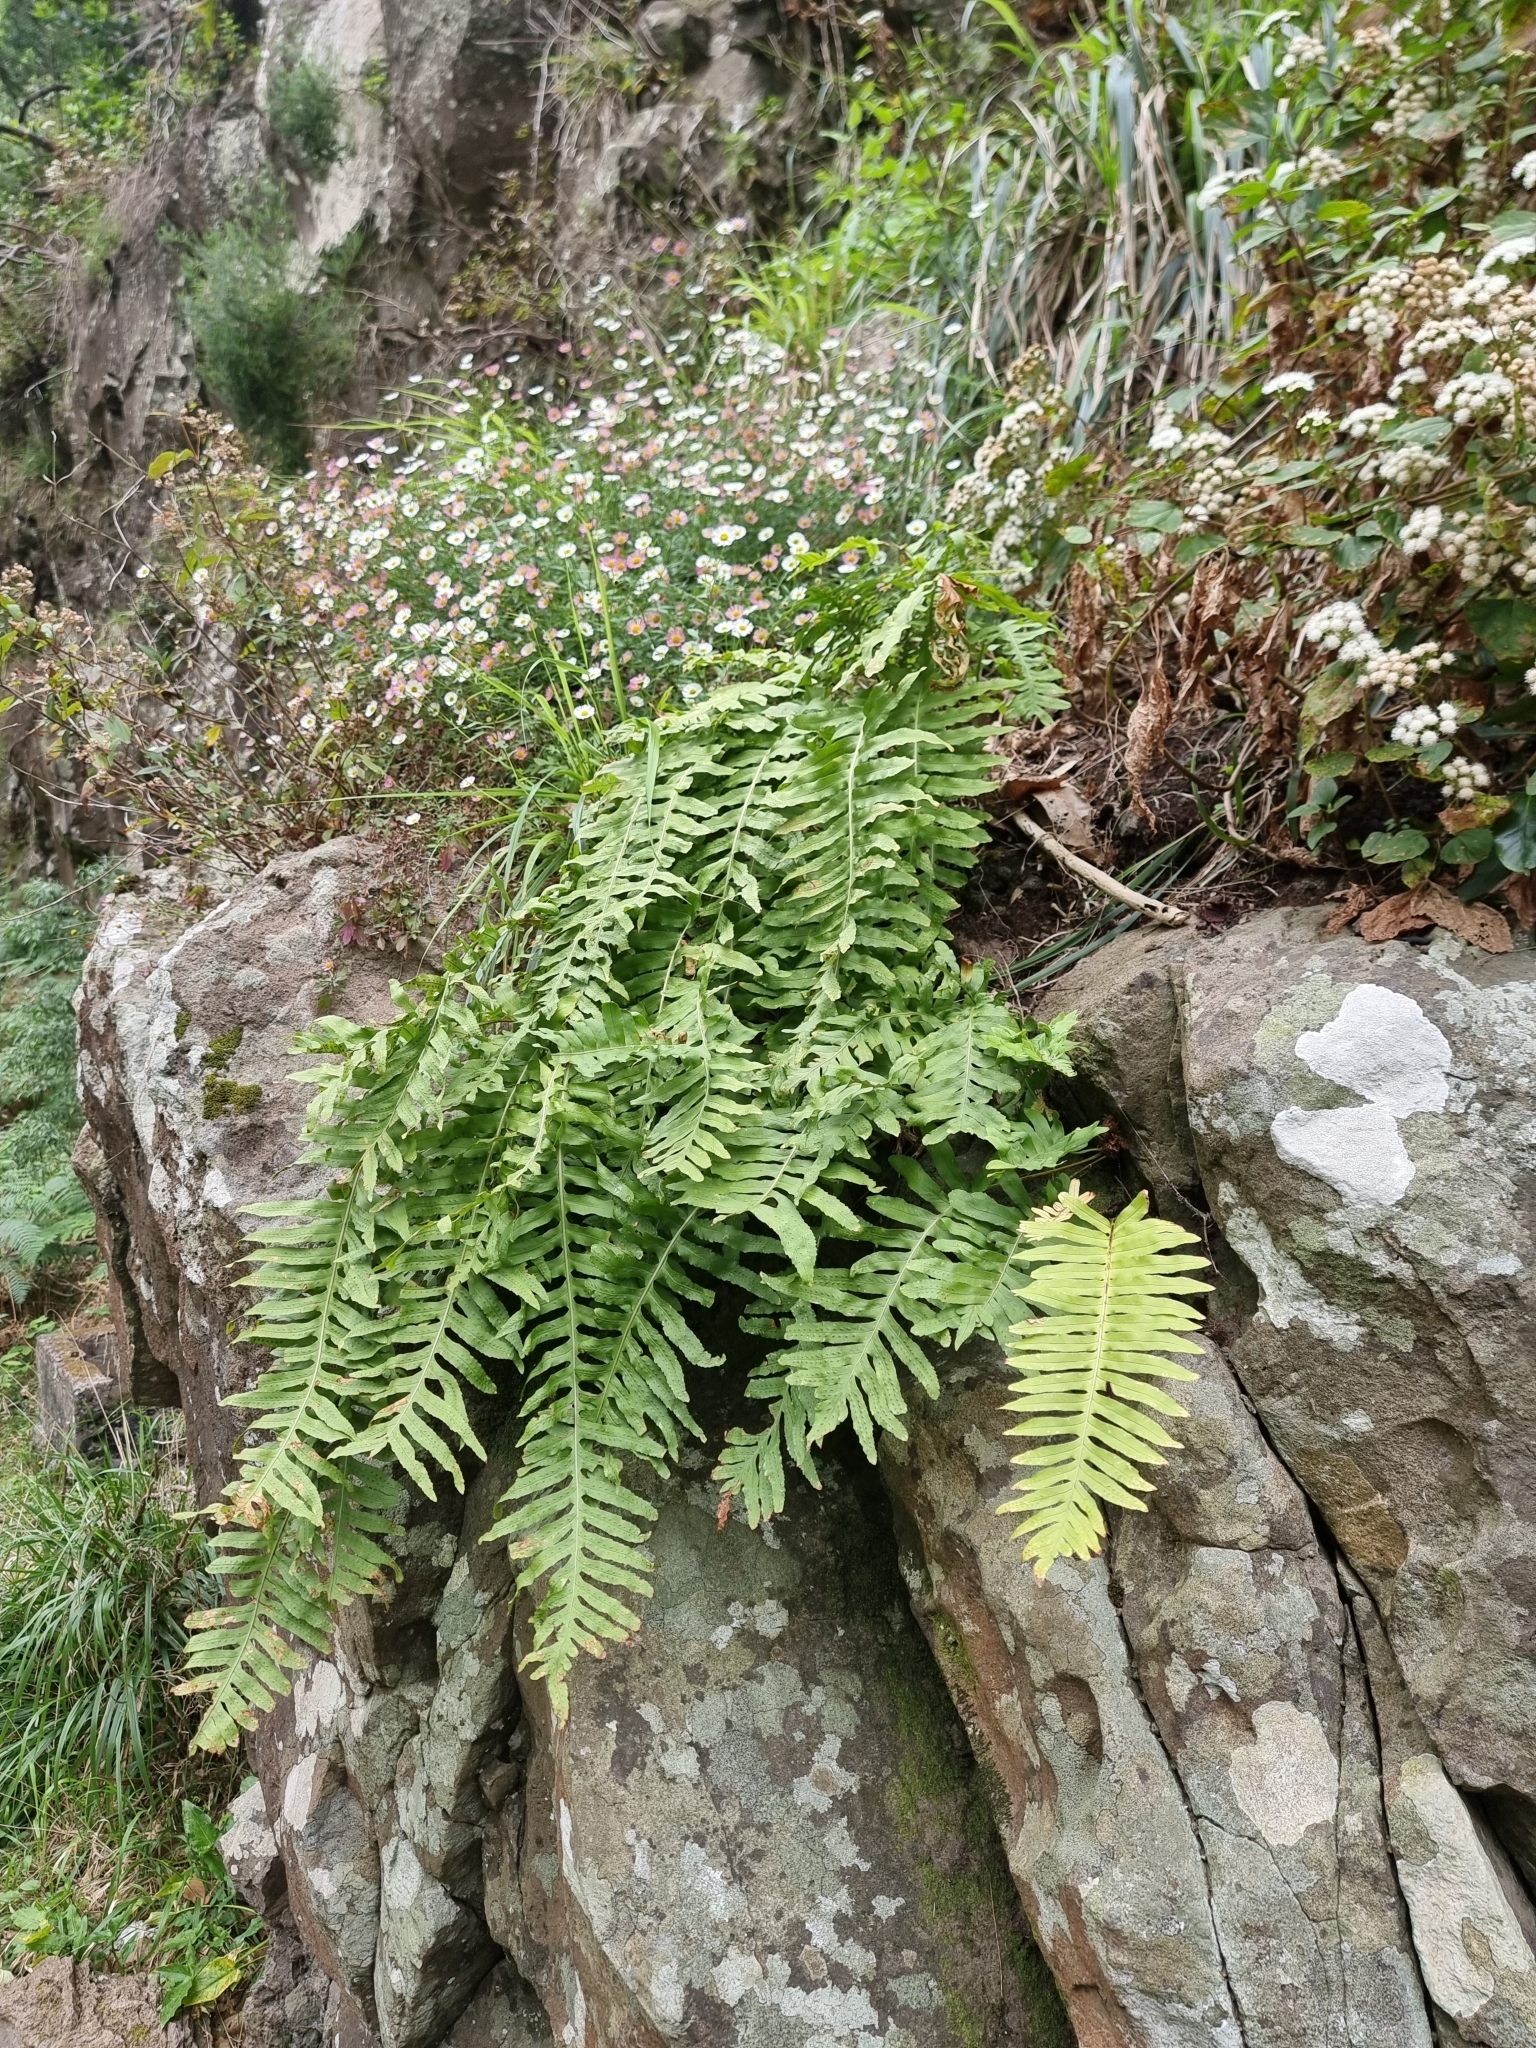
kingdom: Plantae
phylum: Tracheophyta
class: Polypodiopsida
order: Polypodiales
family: Polypodiaceae
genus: Polypodium
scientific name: Polypodium macaronesicum
